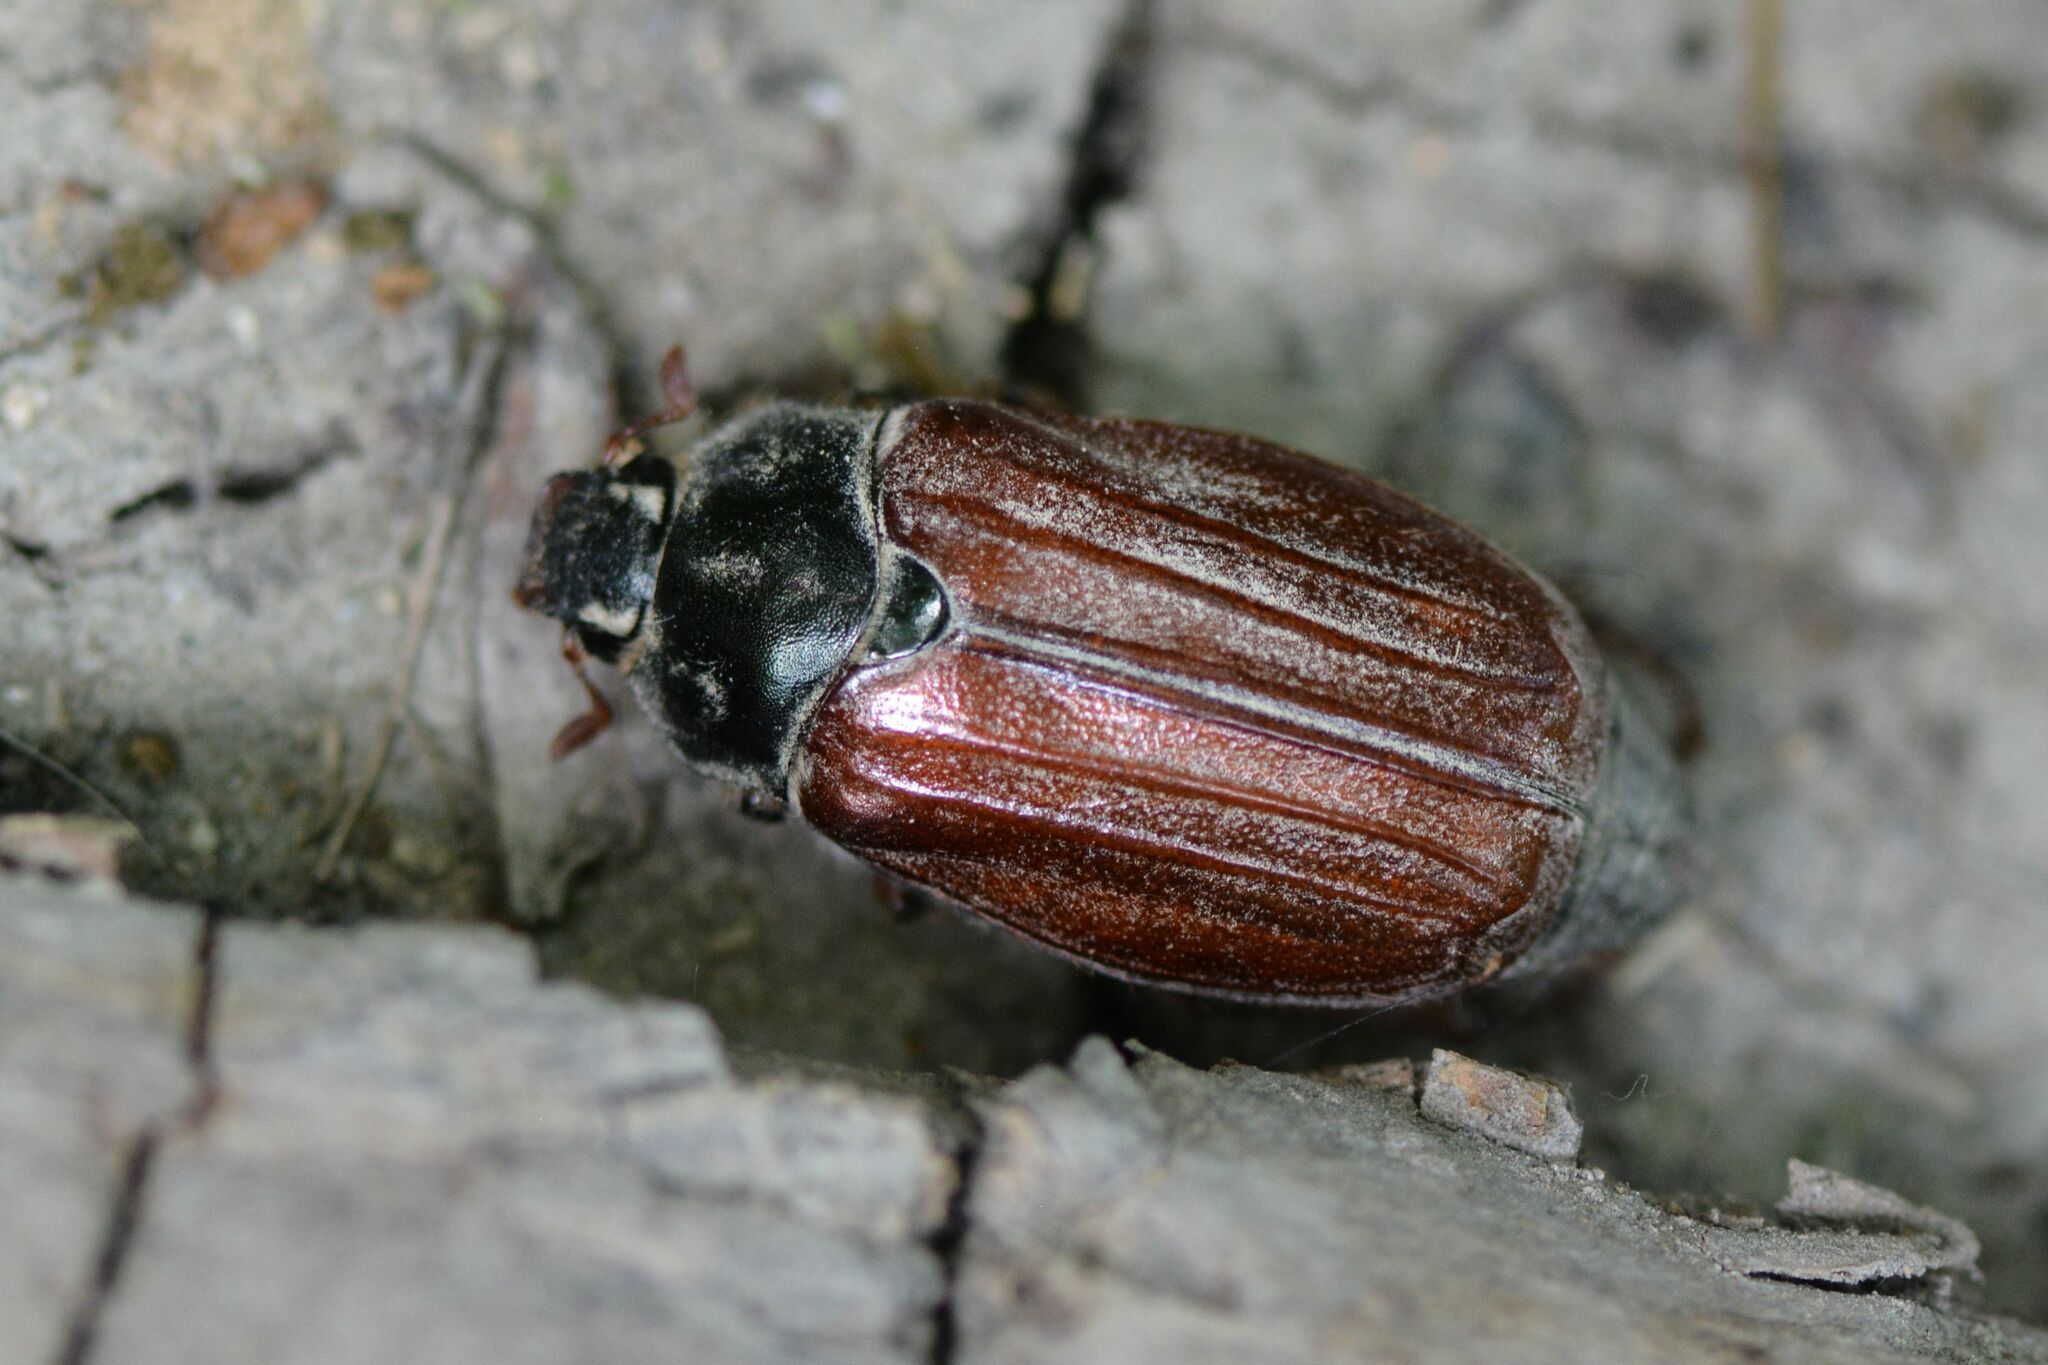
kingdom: Animalia
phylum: Arthropoda
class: Insecta
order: Coleoptera
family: Scarabaeidae
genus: Melolontha
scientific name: Melolontha melolontha
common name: Cockchafer maybeetle
